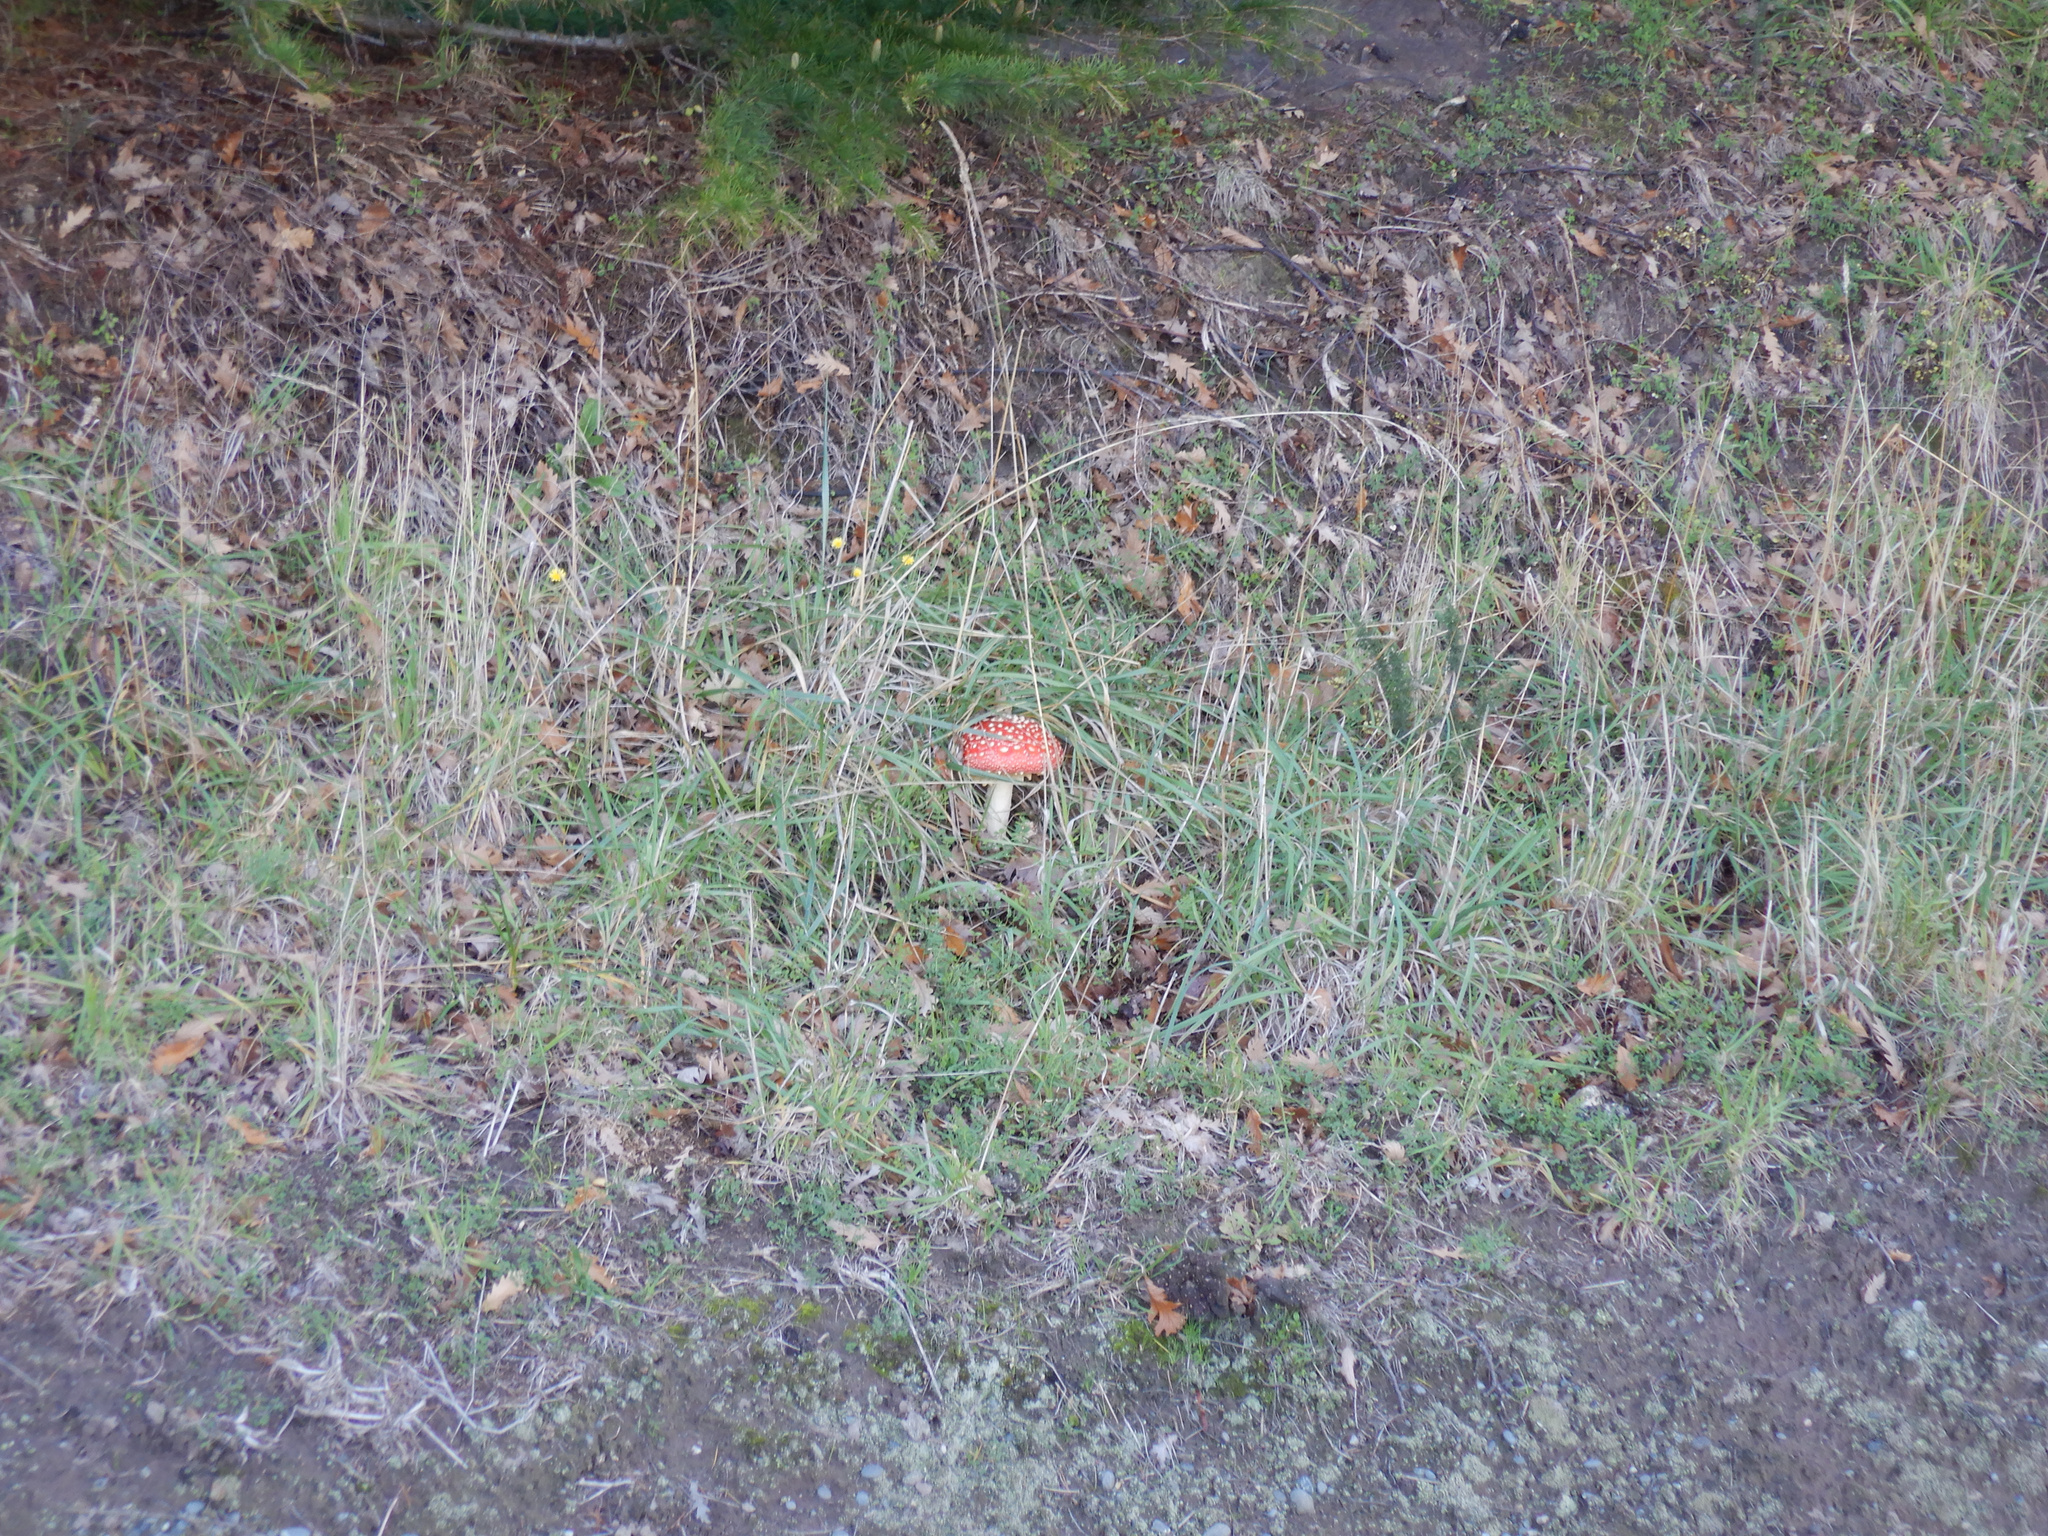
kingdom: Fungi
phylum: Basidiomycota
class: Agaricomycetes
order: Agaricales
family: Amanitaceae
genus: Amanita
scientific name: Amanita muscaria
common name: Fly agaric
